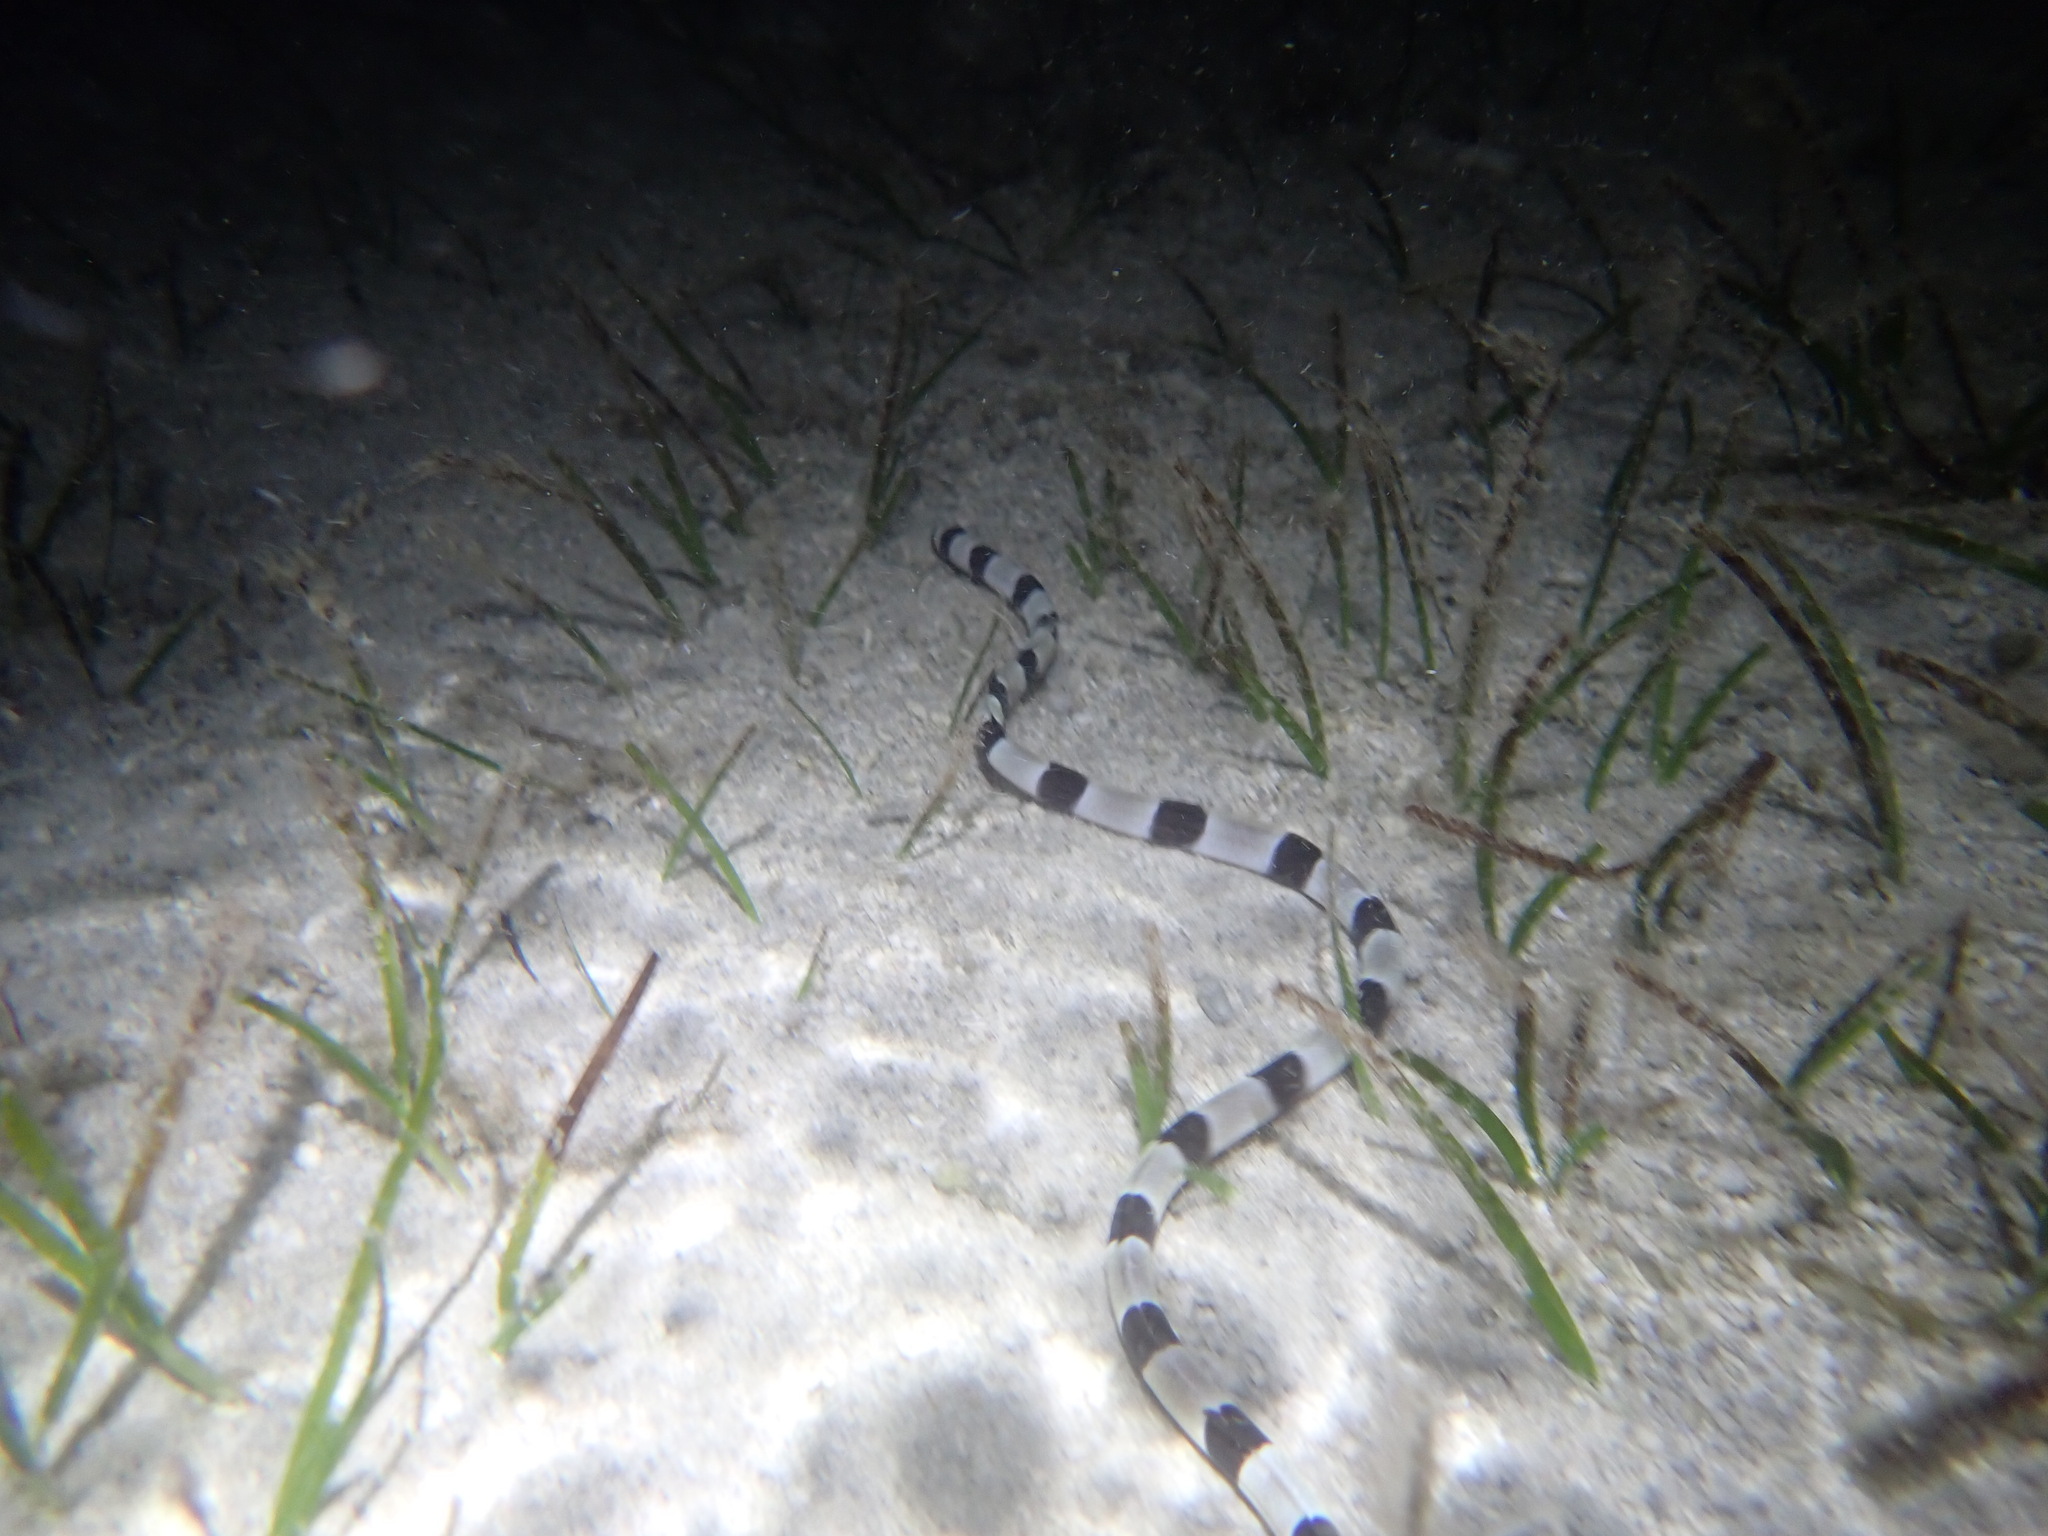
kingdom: Animalia
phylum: Chordata
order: Anguilliformes
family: Ophichthidae
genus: Myrichthys
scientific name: Myrichthys colubrinus
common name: Harlequin snake eel
